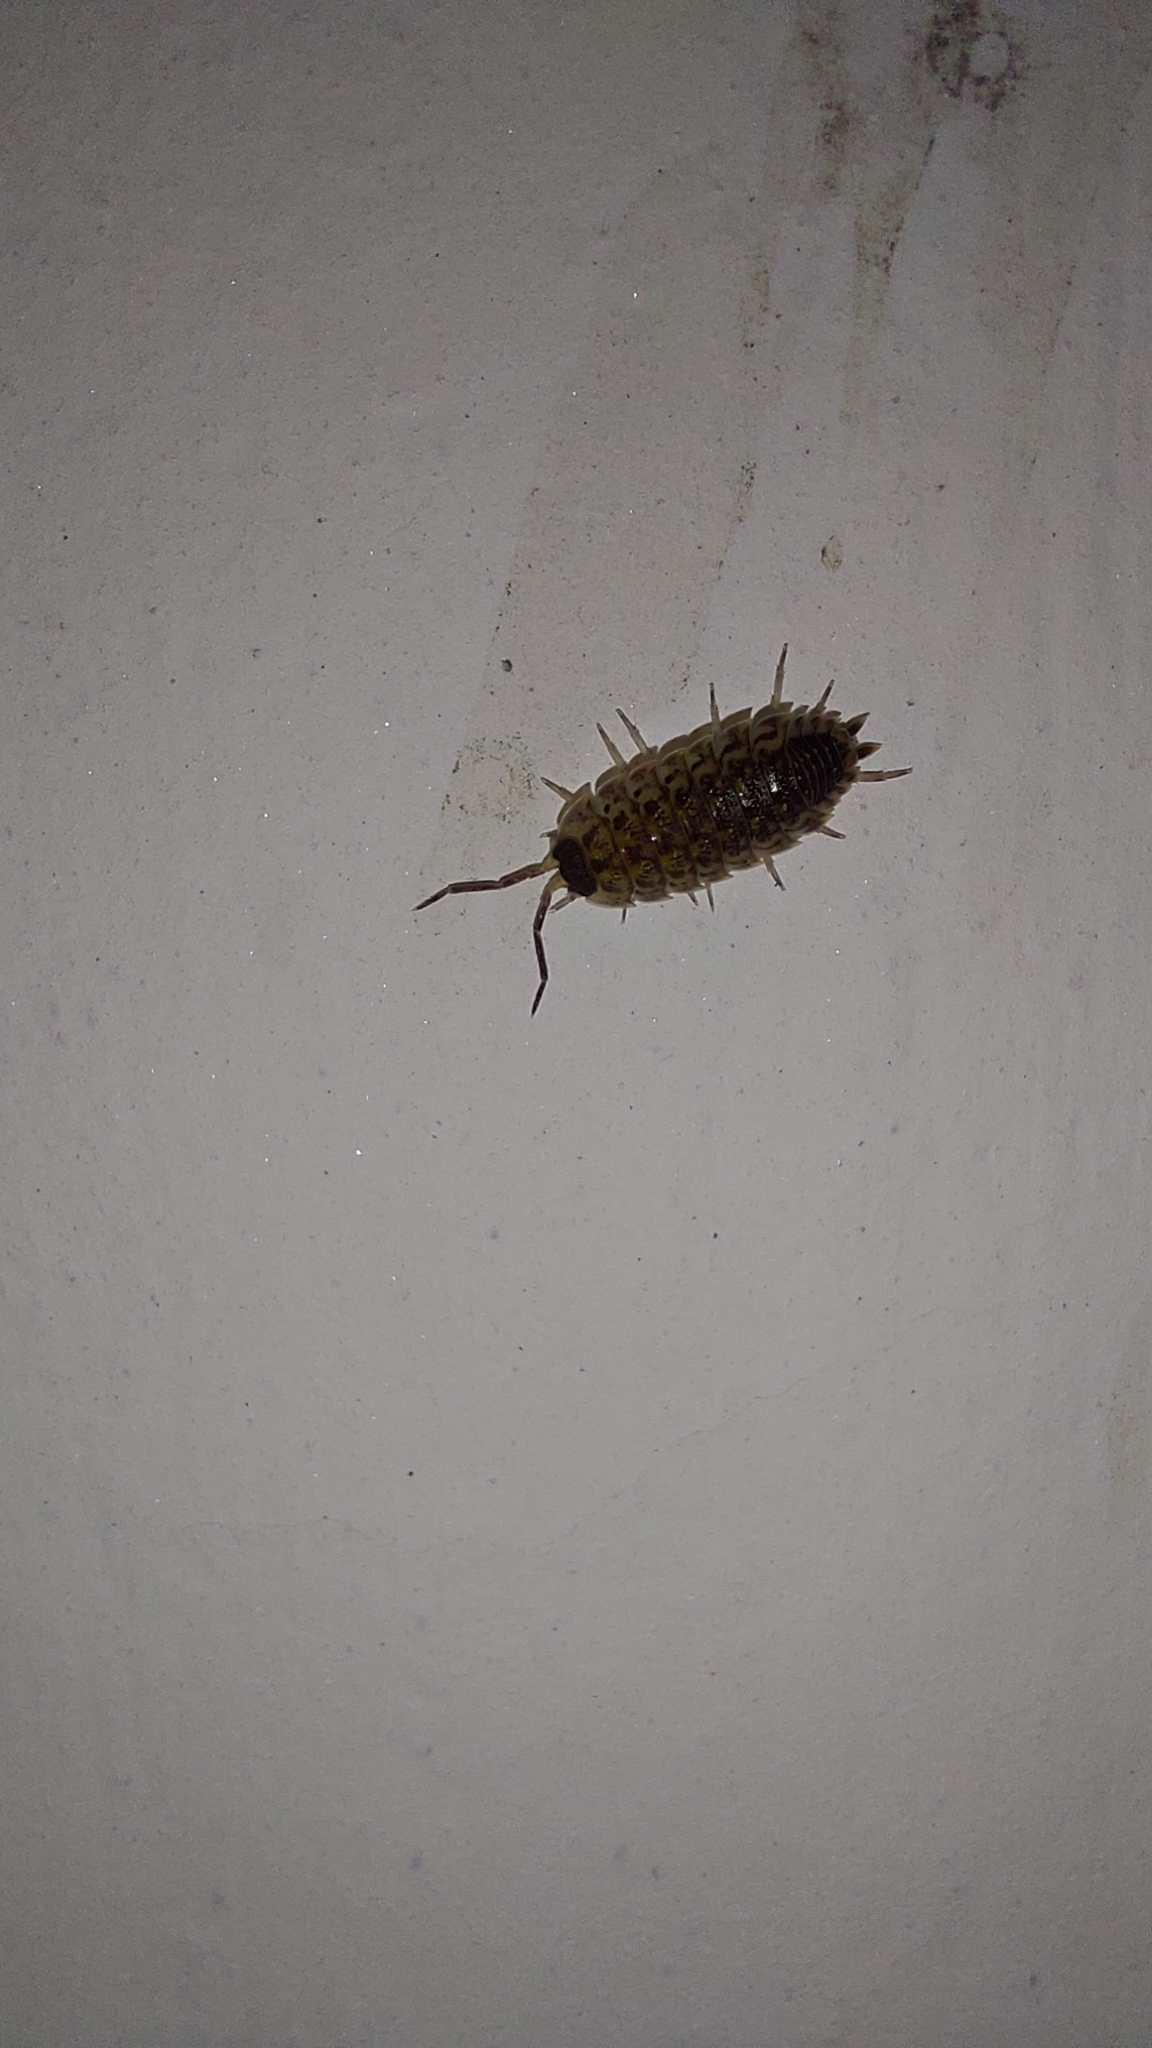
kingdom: Animalia
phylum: Arthropoda
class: Malacostraca
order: Isopoda
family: Porcellionidae
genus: Porcellio
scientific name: Porcellio spinicornis
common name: Painted woodlouse
